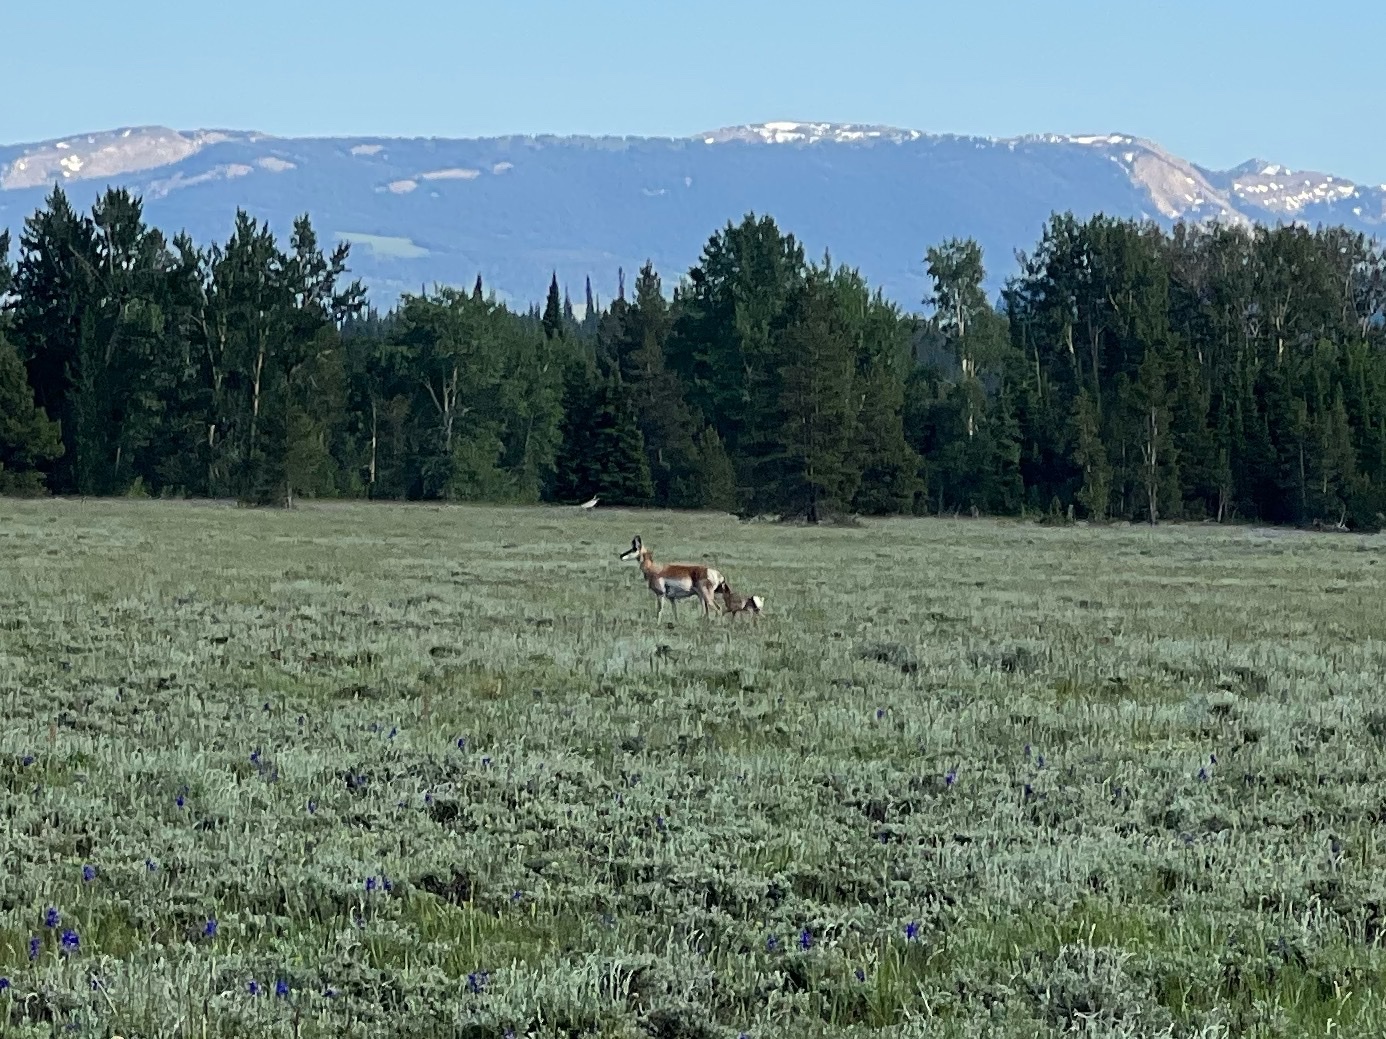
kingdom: Animalia
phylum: Chordata
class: Mammalia
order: Artiodactyla
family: Antilocapridae
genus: Antilocapra
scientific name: Antilocapra americana
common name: Pronghorn
